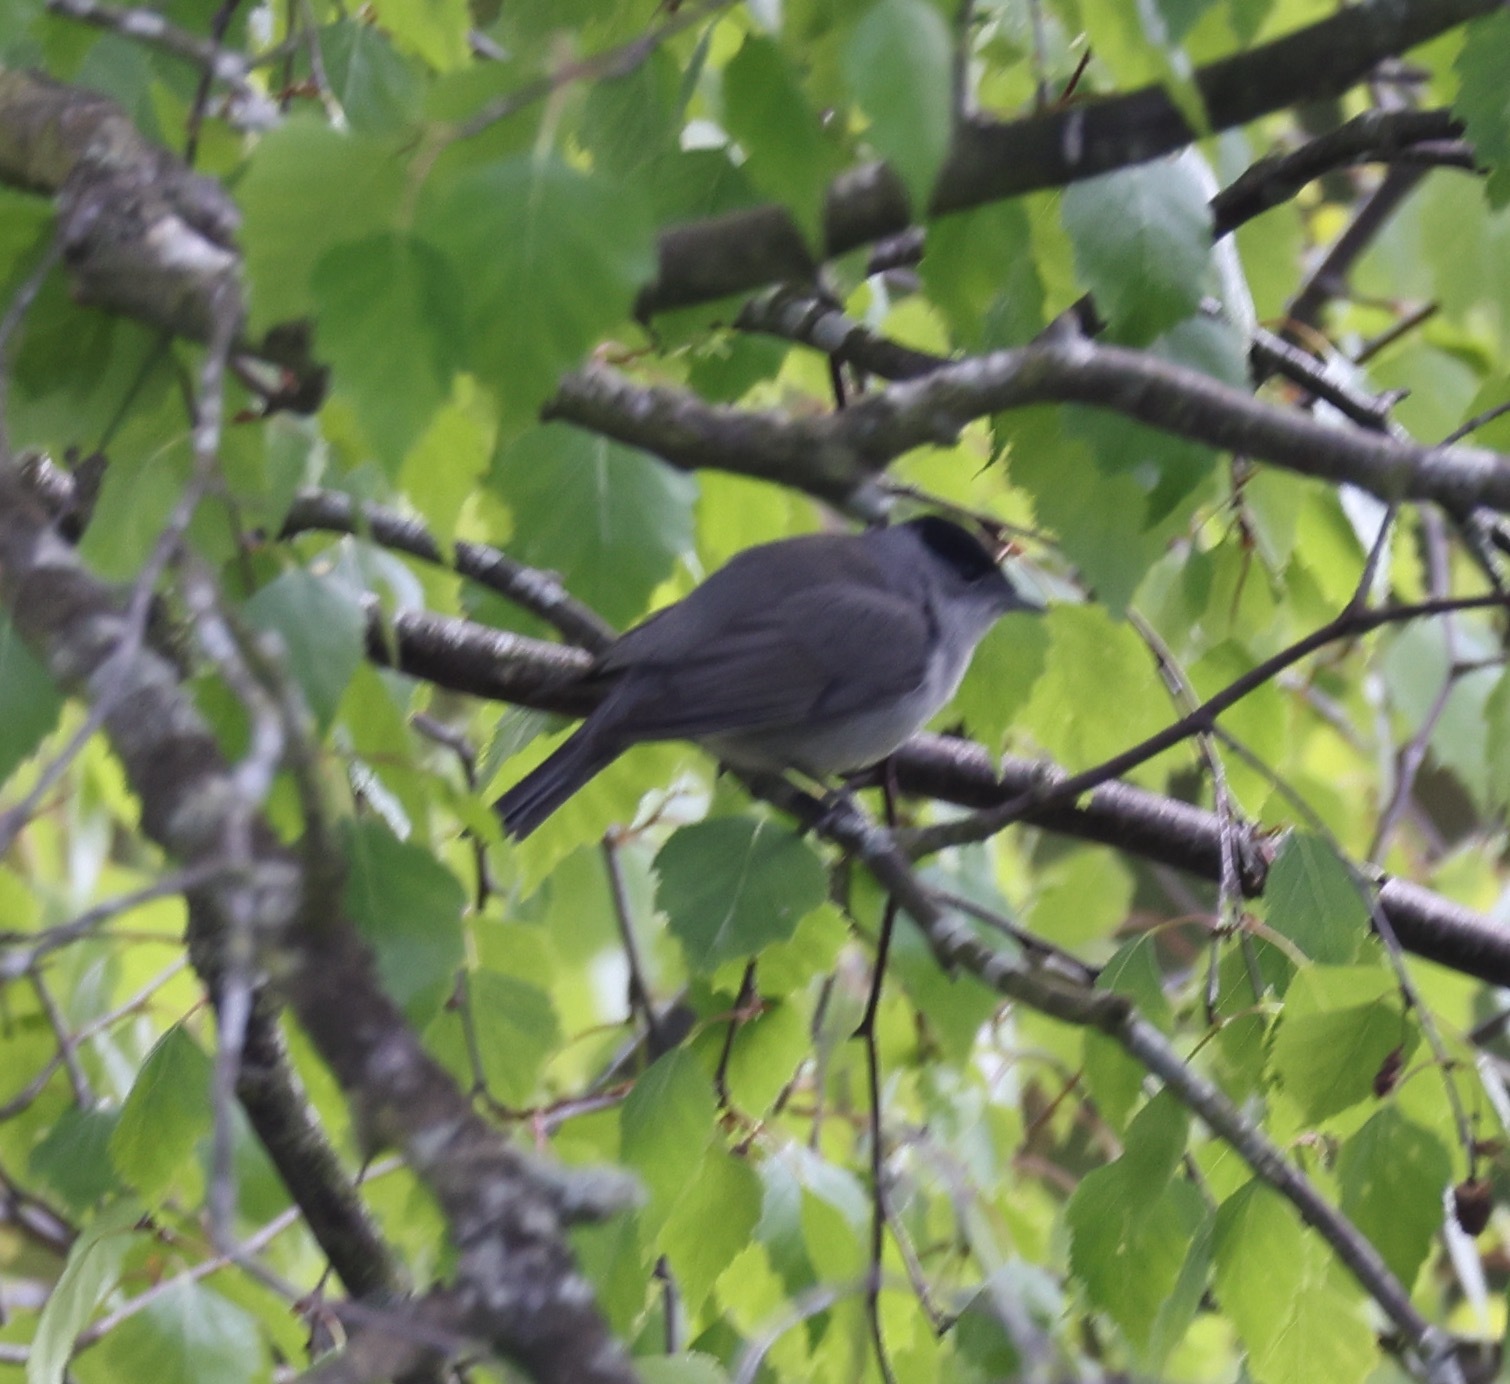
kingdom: Animalia
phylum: Chordata
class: Aves
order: Passeriformes
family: Sylviidae
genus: Sylvia
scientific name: Sylvia atricapilla
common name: Eurasian blackcap
